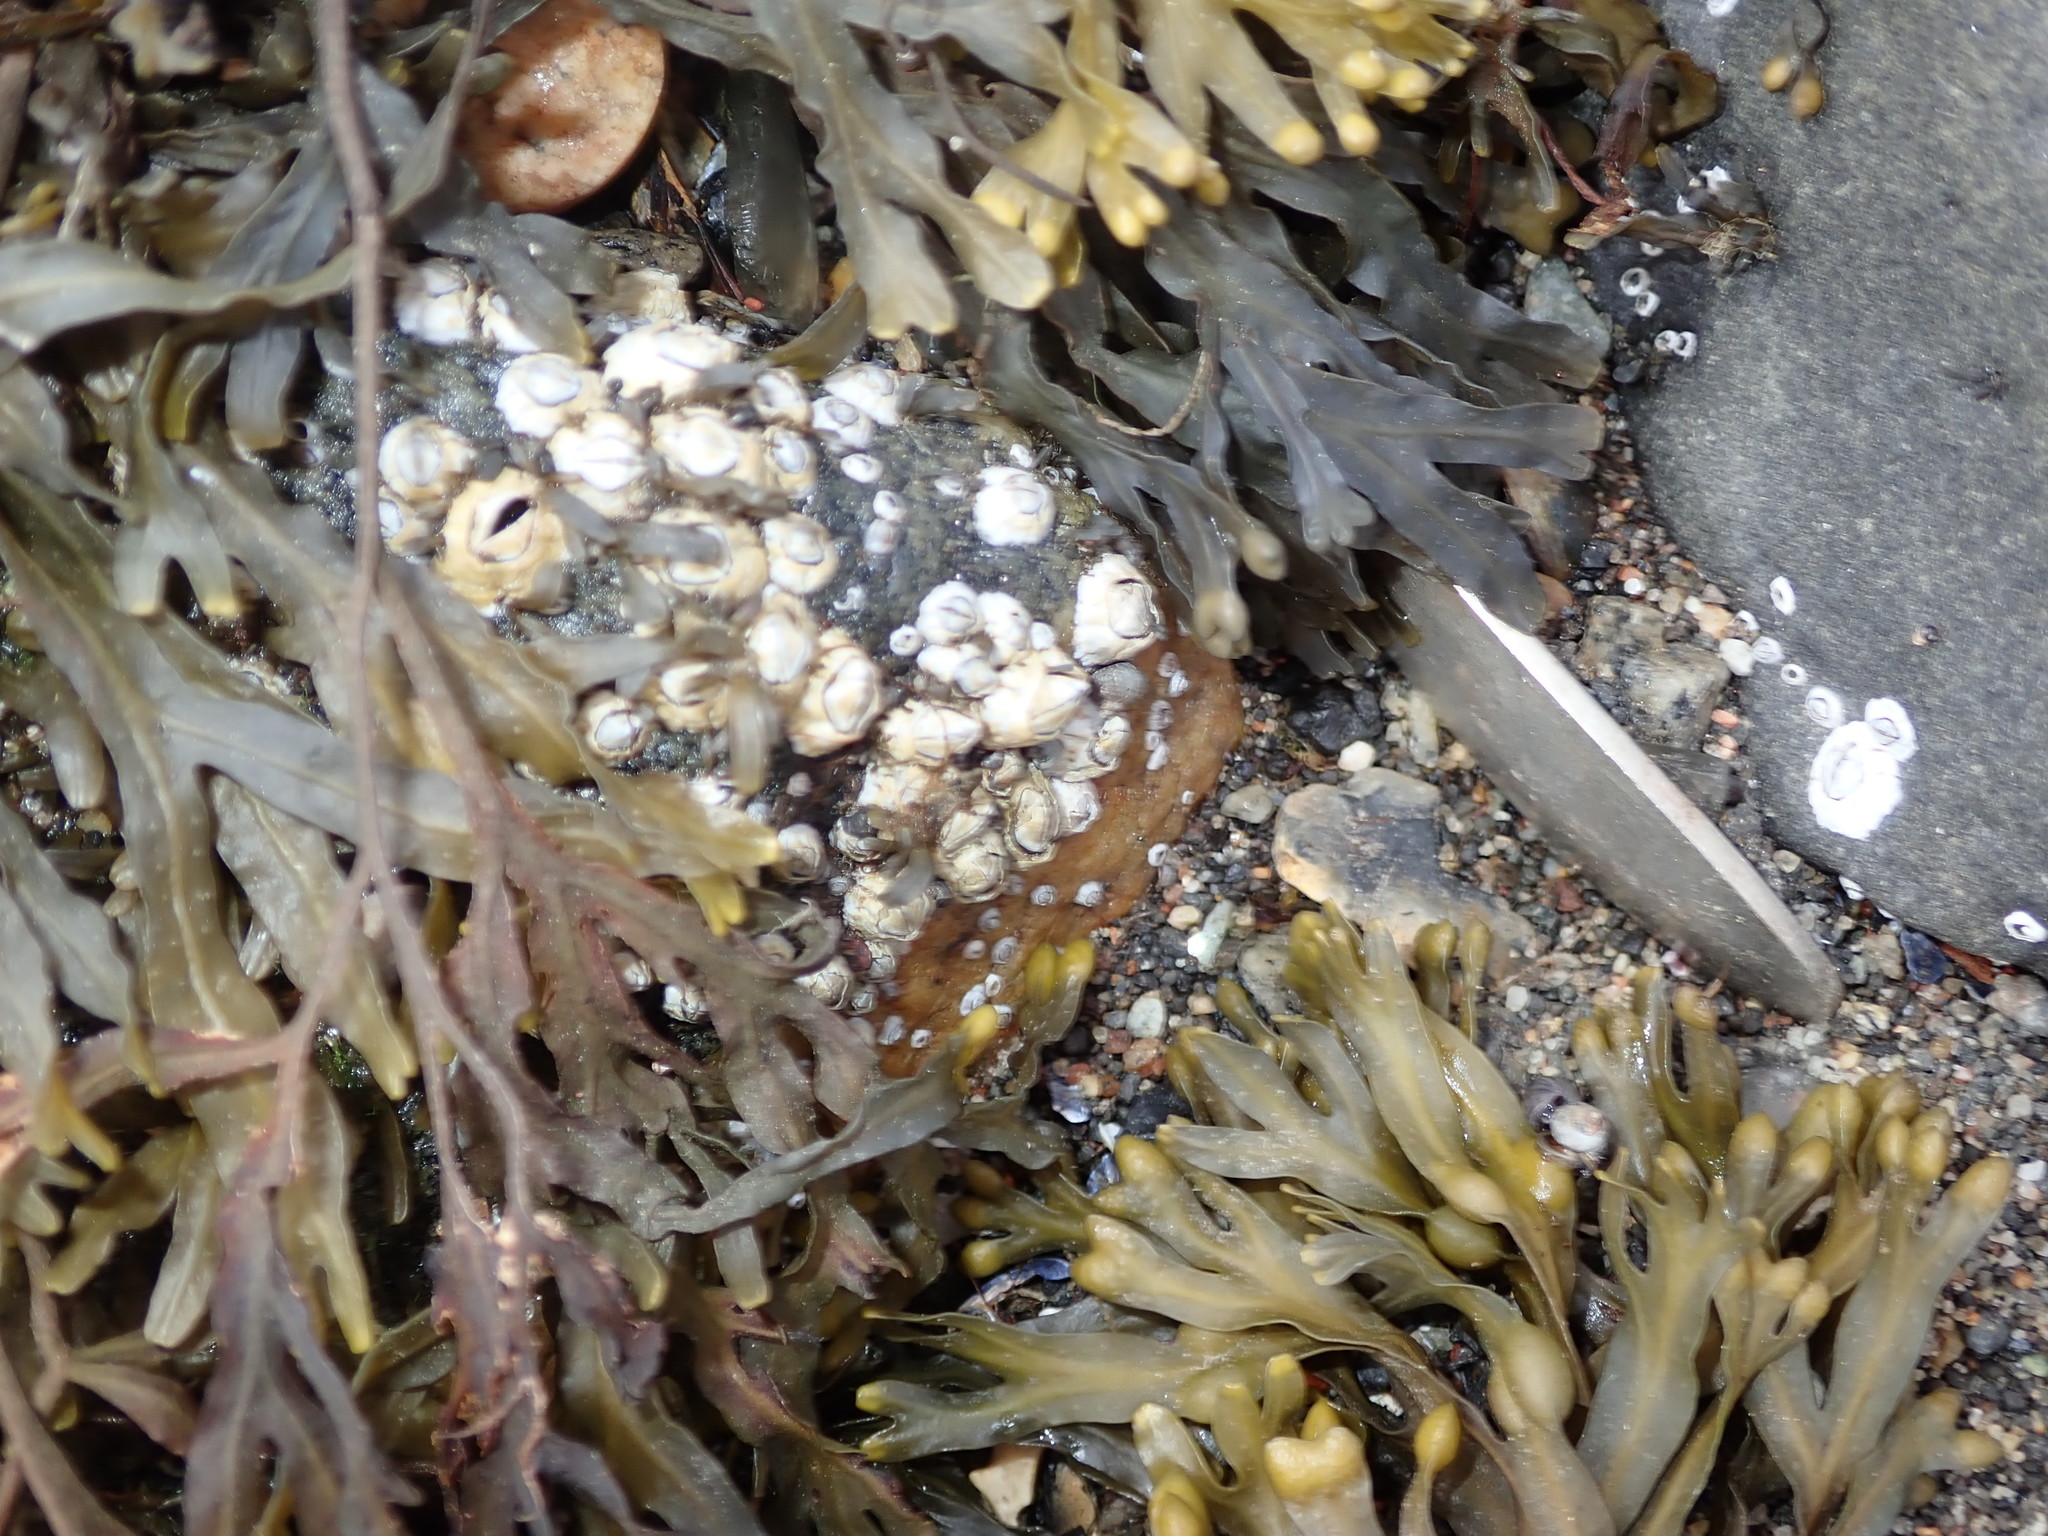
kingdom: Animalia
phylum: Arthropoda
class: Maxillopoda
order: Sessilia
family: Archaeobalanidae
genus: Semibalanus
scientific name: Semibalanus balanoides
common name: Acorn barnacle
